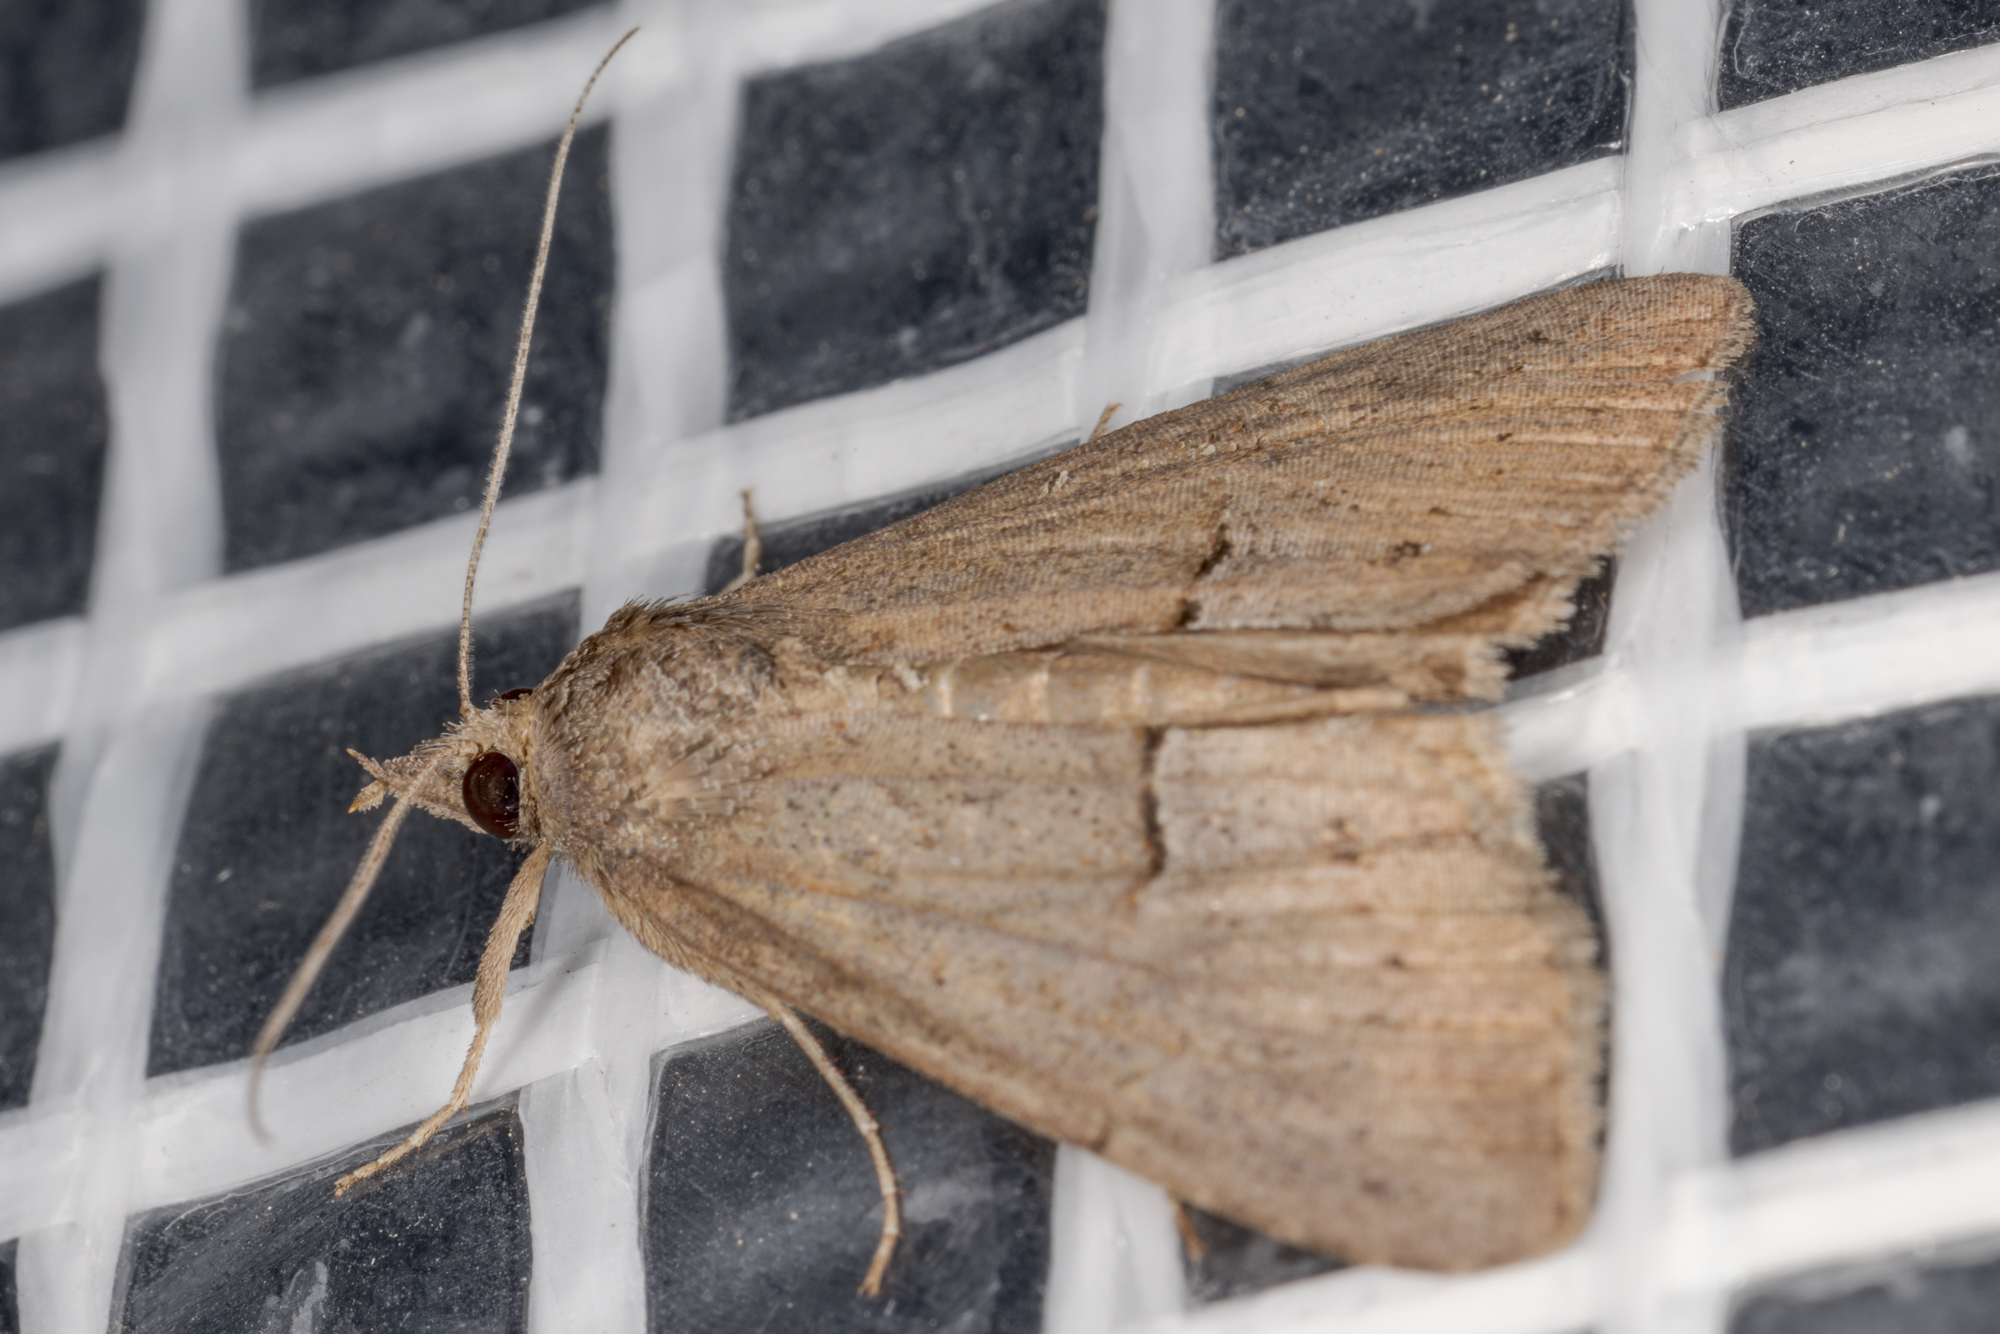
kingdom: Animalia
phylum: Arthropoda
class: Insecta
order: Lepidoptera
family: Erebidae
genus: Hypena
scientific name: Hypena scabra
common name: Green cloverworm
